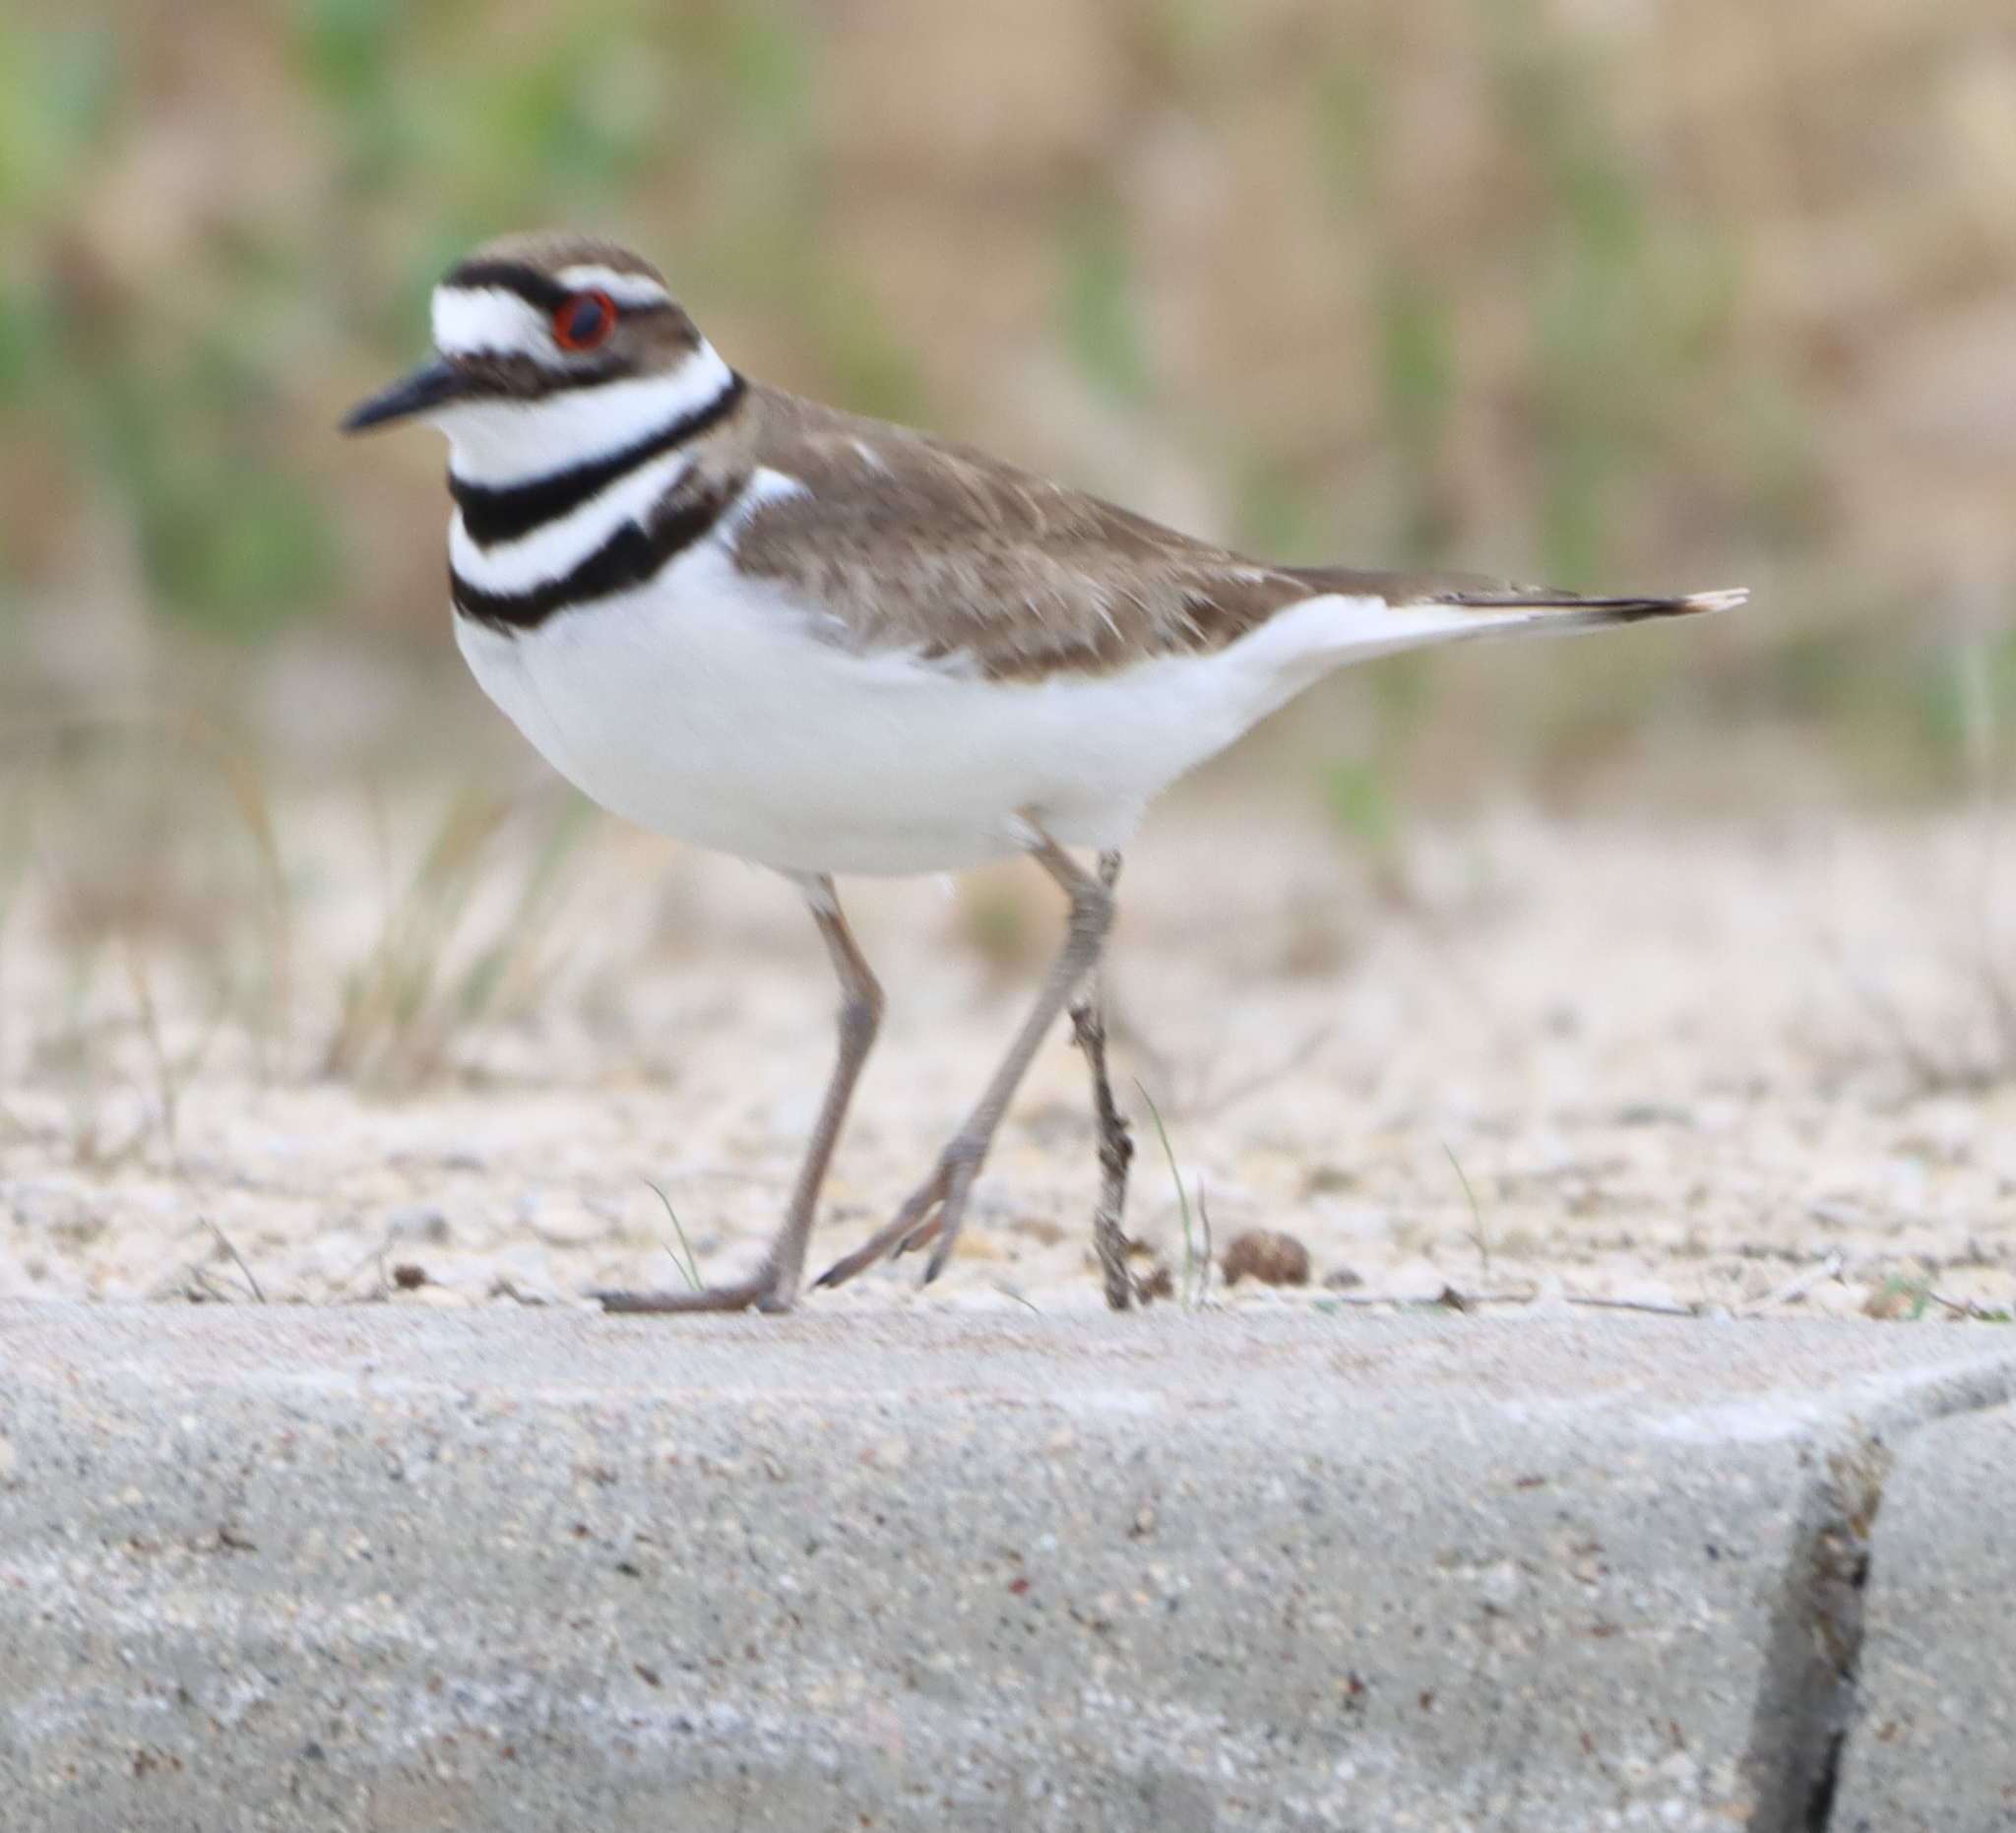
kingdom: Animalia
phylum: Chordata
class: Aves
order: Charadriiformes
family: Charadriidae
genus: Charadrius
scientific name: Charadrius vociferus
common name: Killdeer
